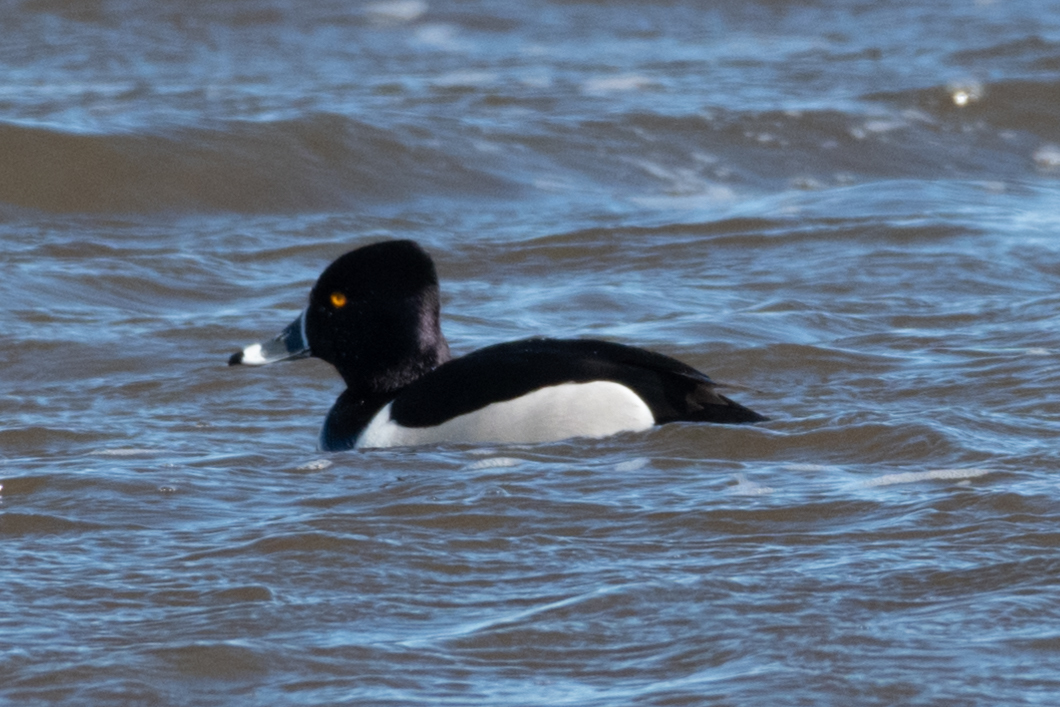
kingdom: Animalia
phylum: Chordata
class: Aves
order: Anseriformes
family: Anatidae
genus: Aythya
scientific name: Aythya collaris
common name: Ring-necked duck
